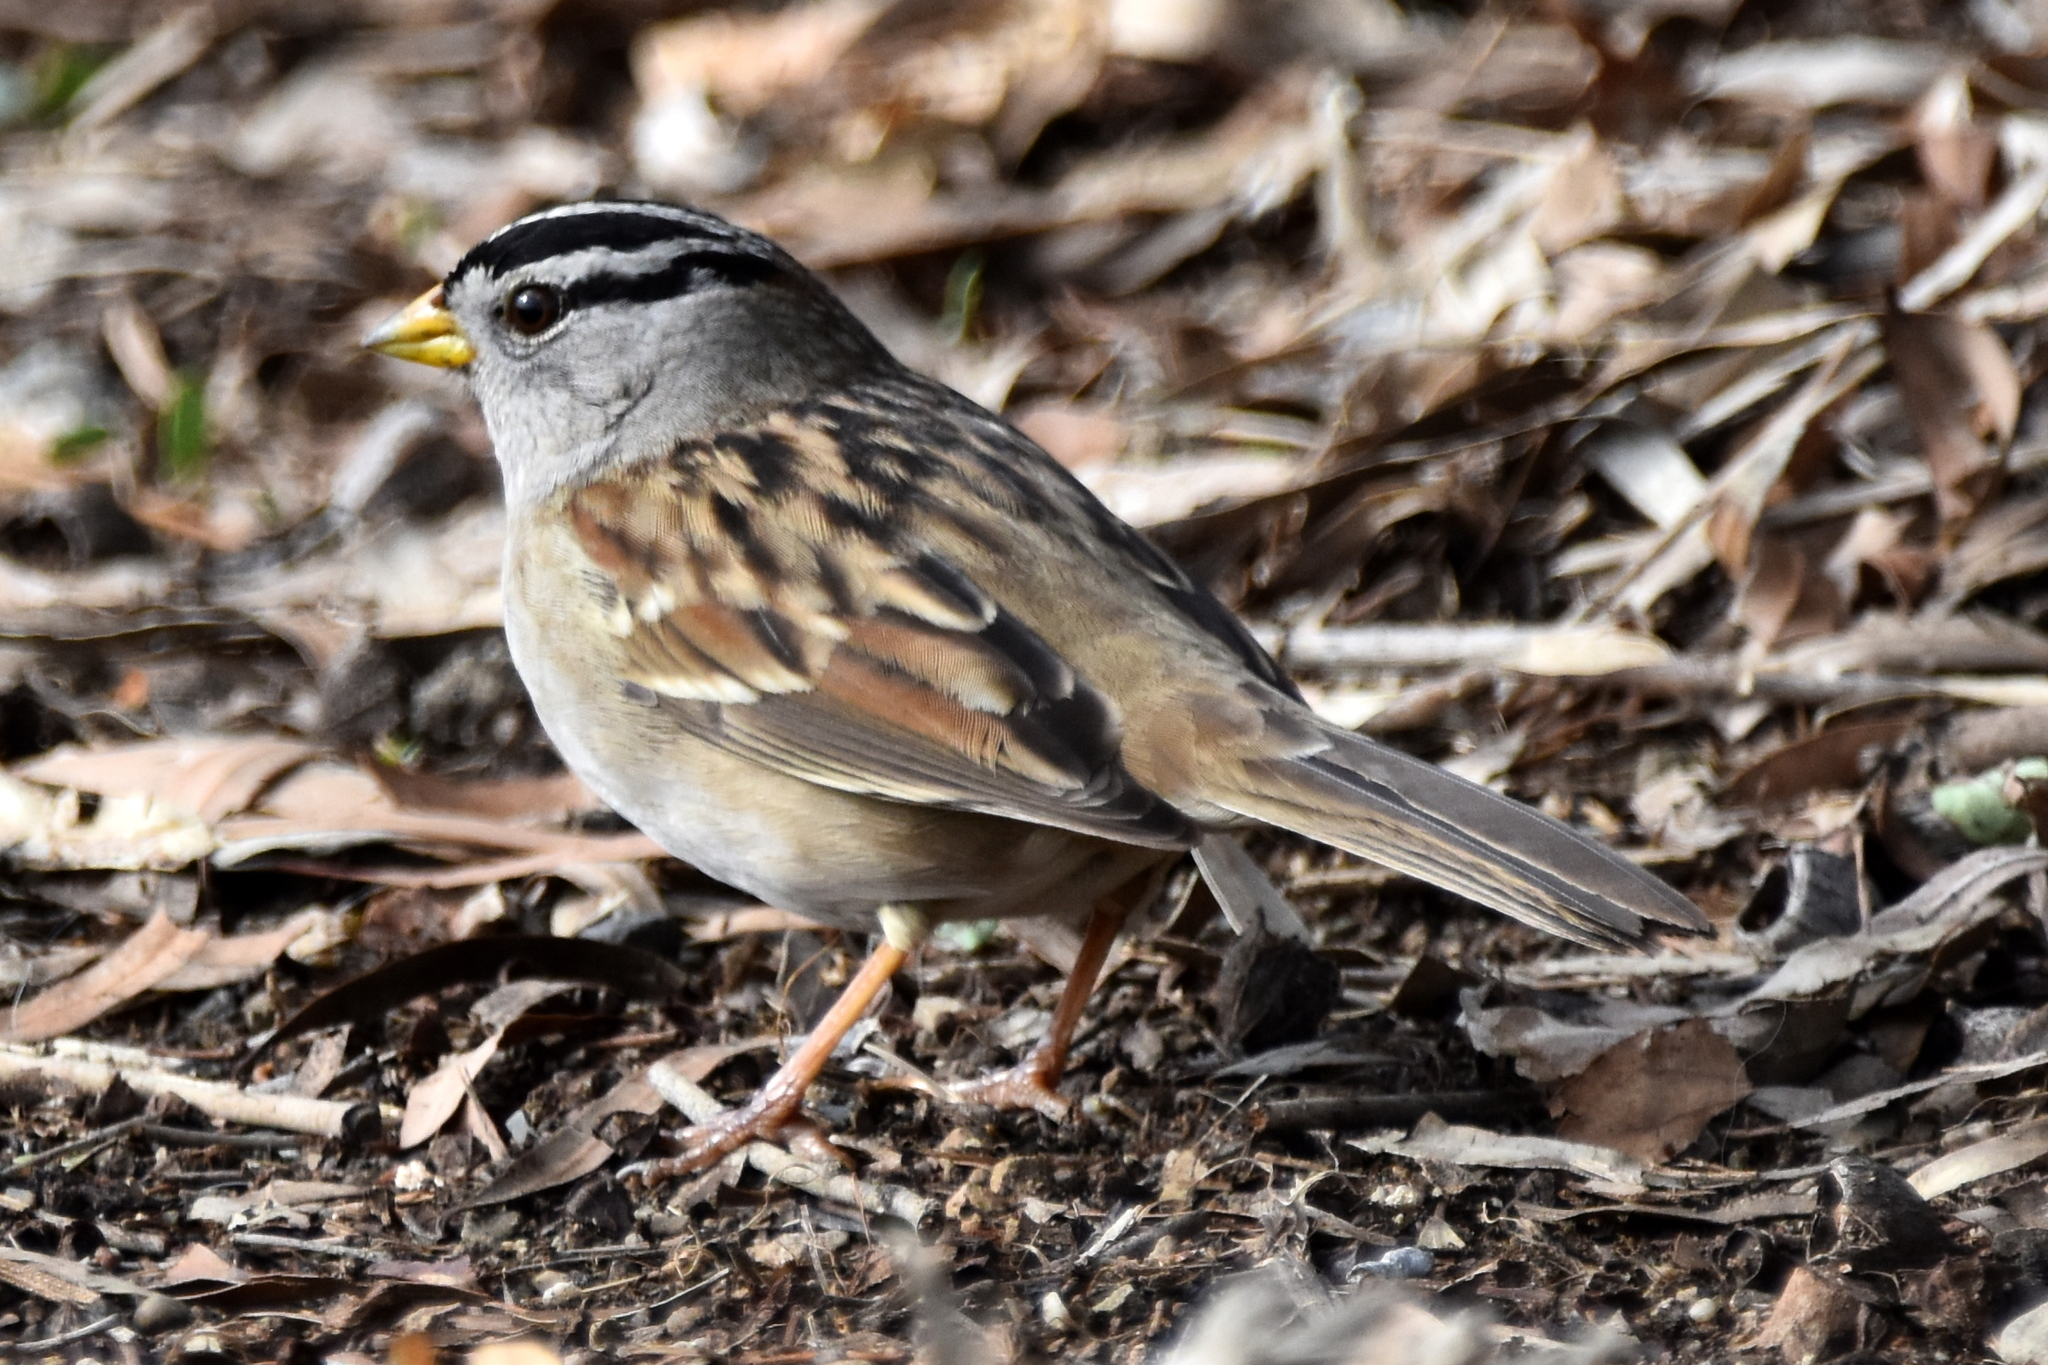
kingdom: Animalia
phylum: Chordata
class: Aves
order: Passeriformes
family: Passerellidae
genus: Zonotrichia
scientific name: Zonotrichia leucophrys
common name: White-crowned sparrow
